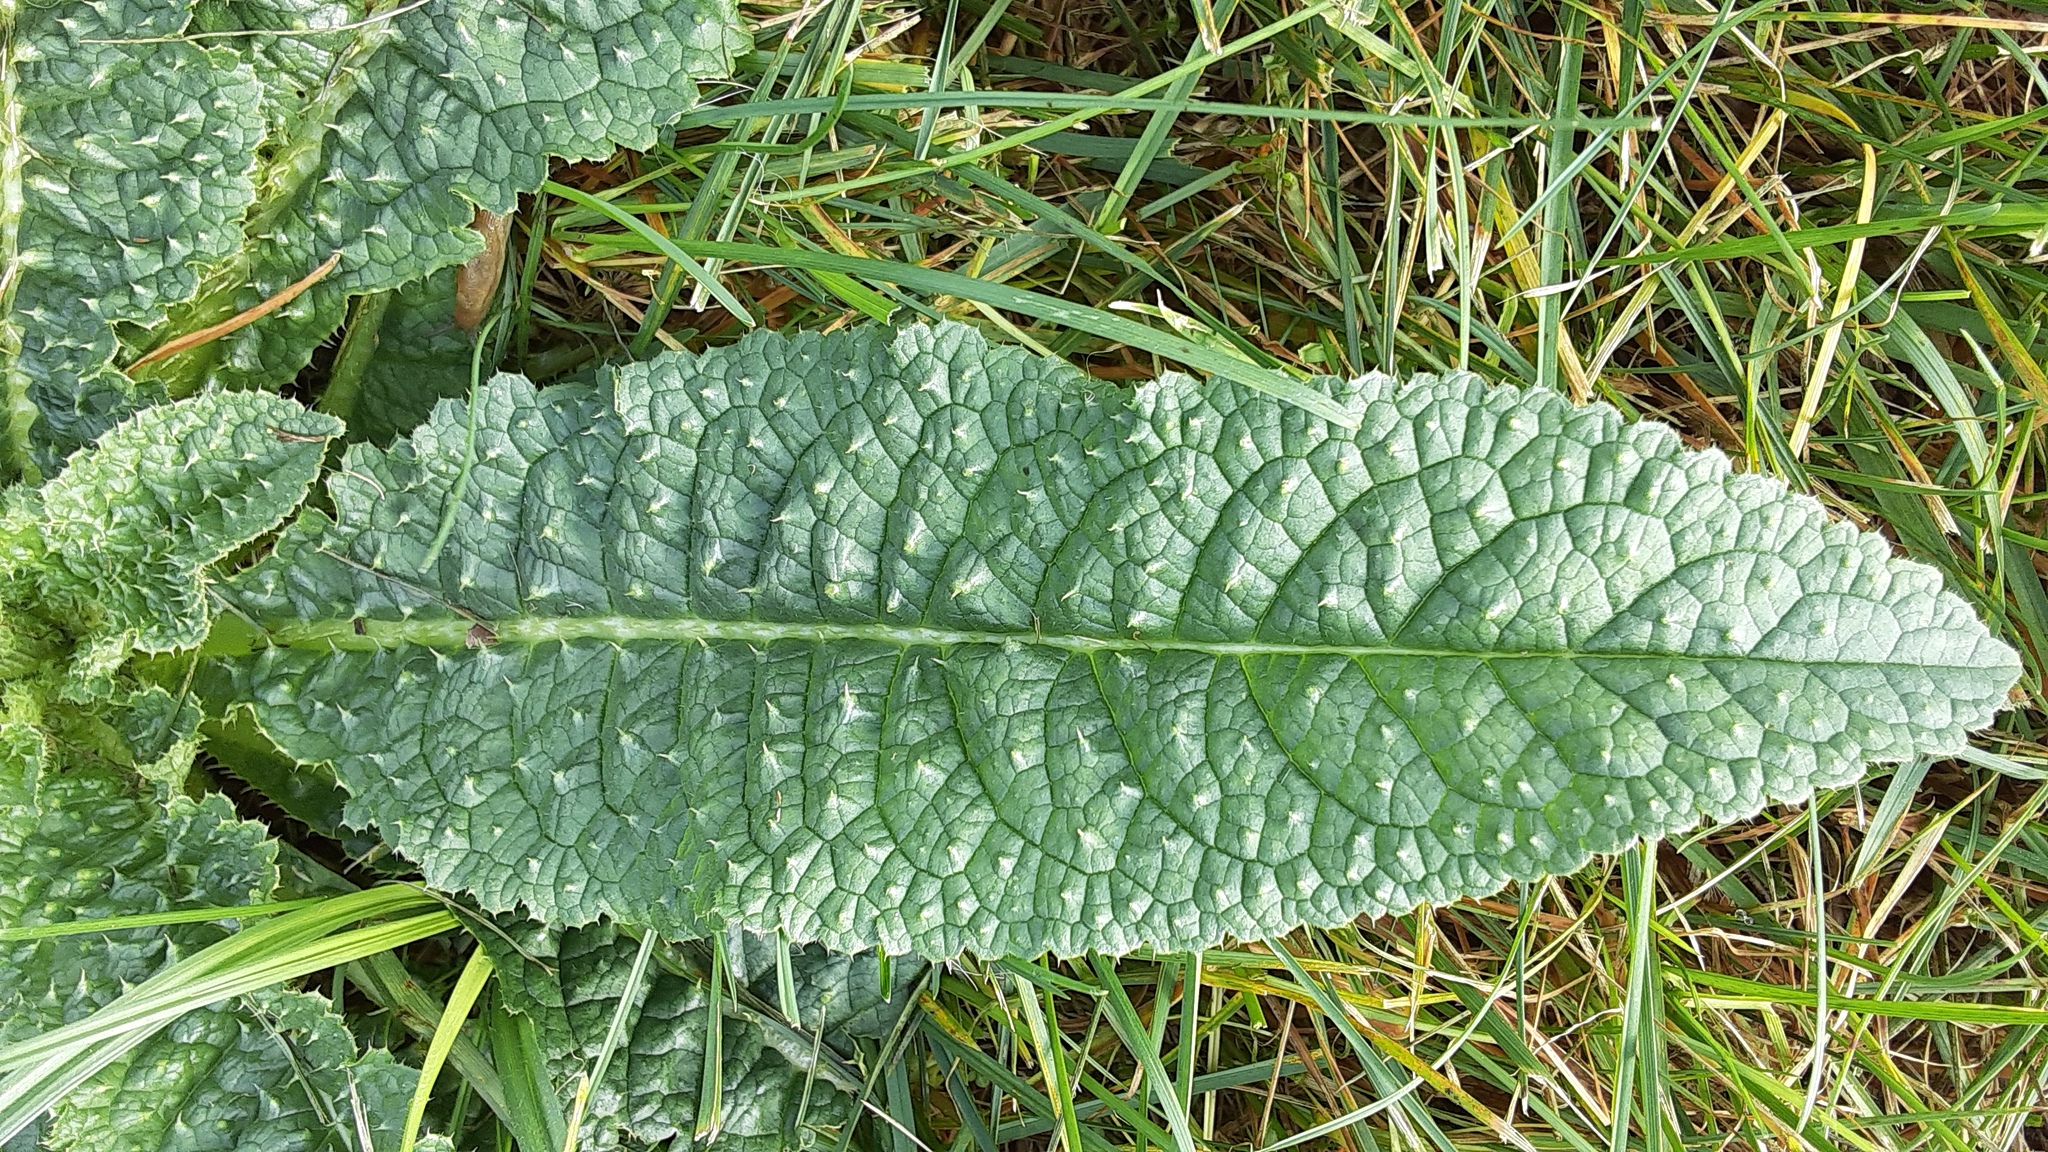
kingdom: Plantae
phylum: Tracheophyta
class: Magnoliopsida
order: Dipsacales
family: Caprifoliaceae
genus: Dipsacus
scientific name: Dipsacus fullonum
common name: Teasel
